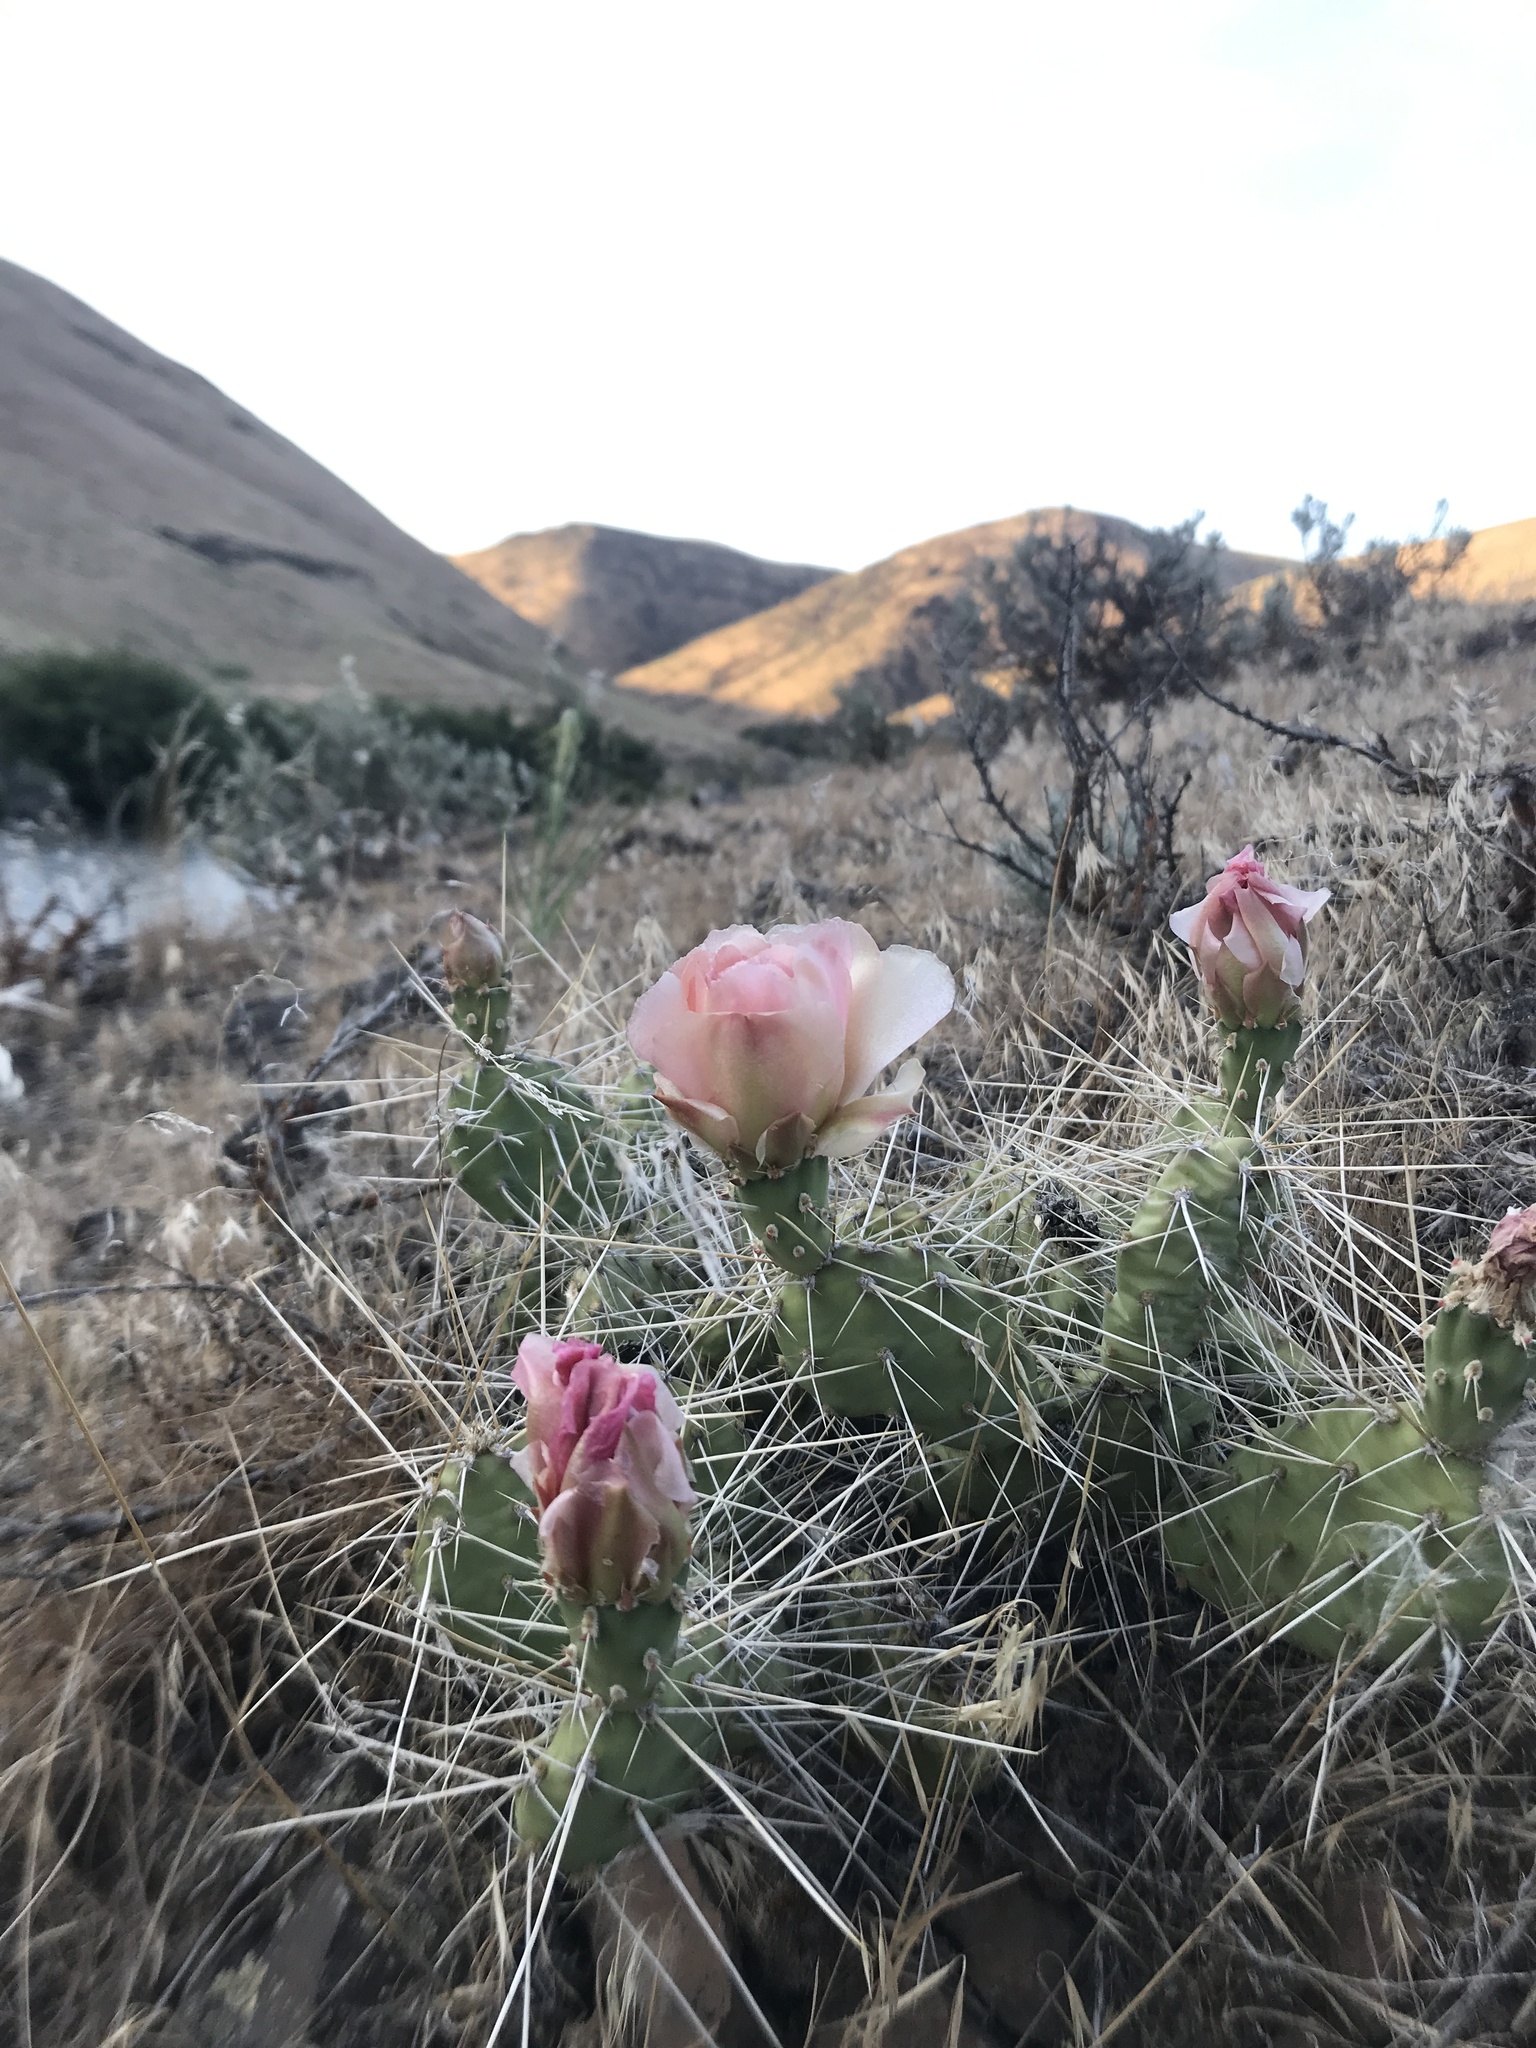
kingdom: Plantae
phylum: Tracheophyta
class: Magnoliopsida
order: Caryophyllales
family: Cactaceae
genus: Opuntia
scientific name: Opuntia columbiana
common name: Columbia prickly-pear
